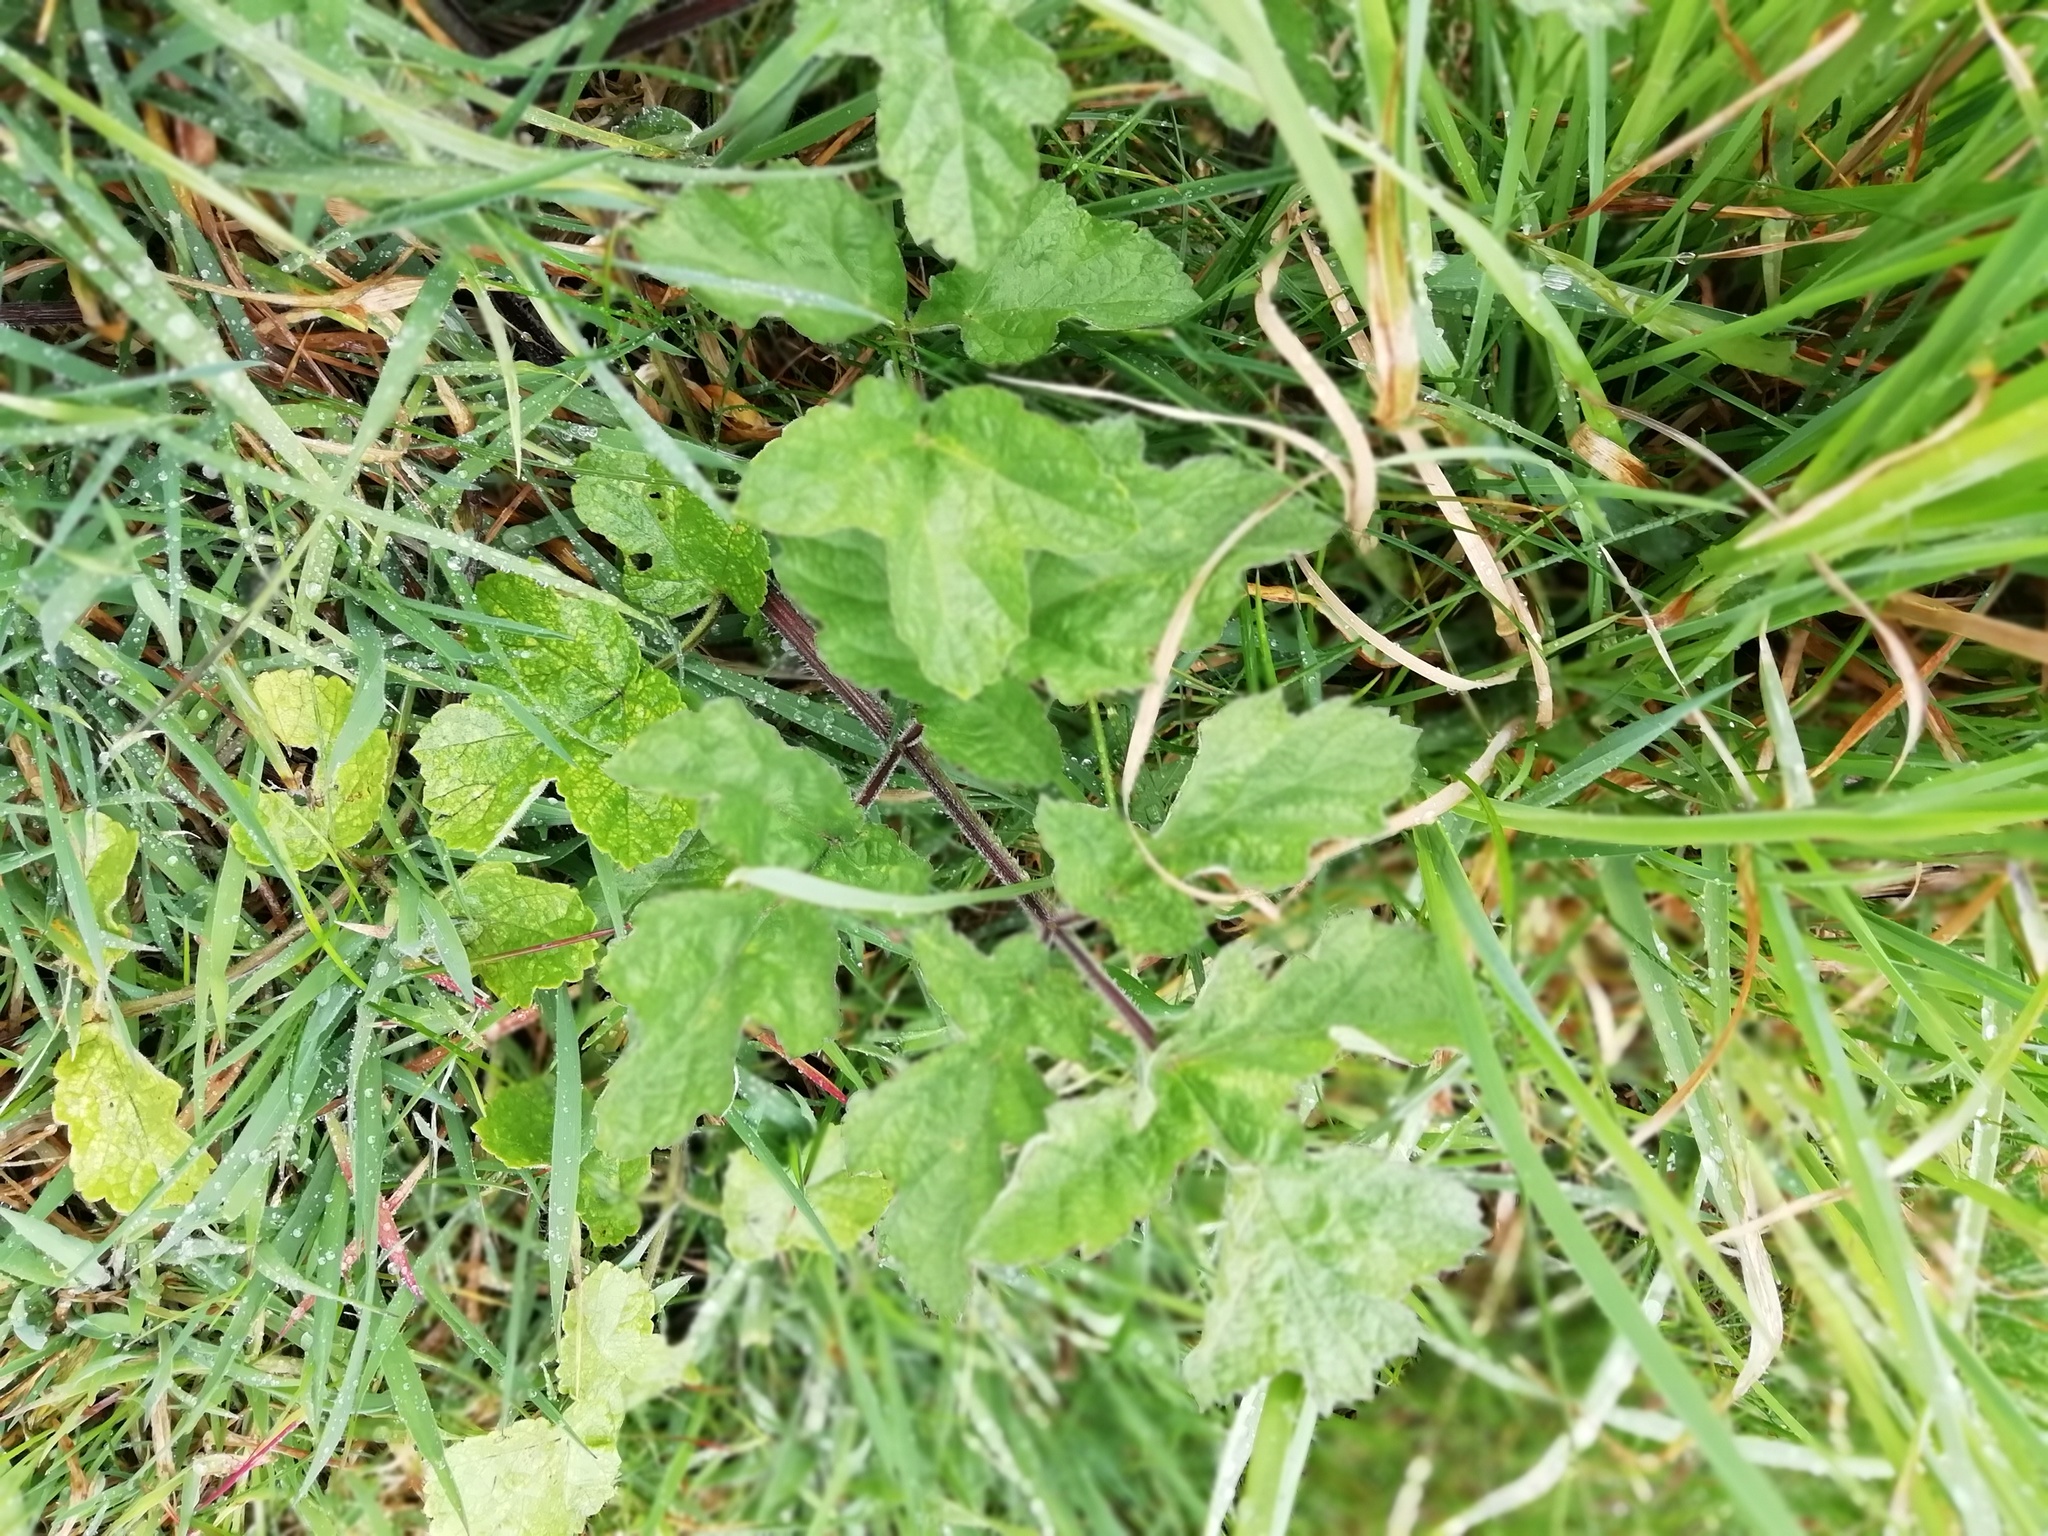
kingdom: Plantae
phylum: Tracheophyta
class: Magnoliopsida
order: Apiales
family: Apiaceae
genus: Heracleum
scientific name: Heracleum sphondylium
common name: Hogweed
